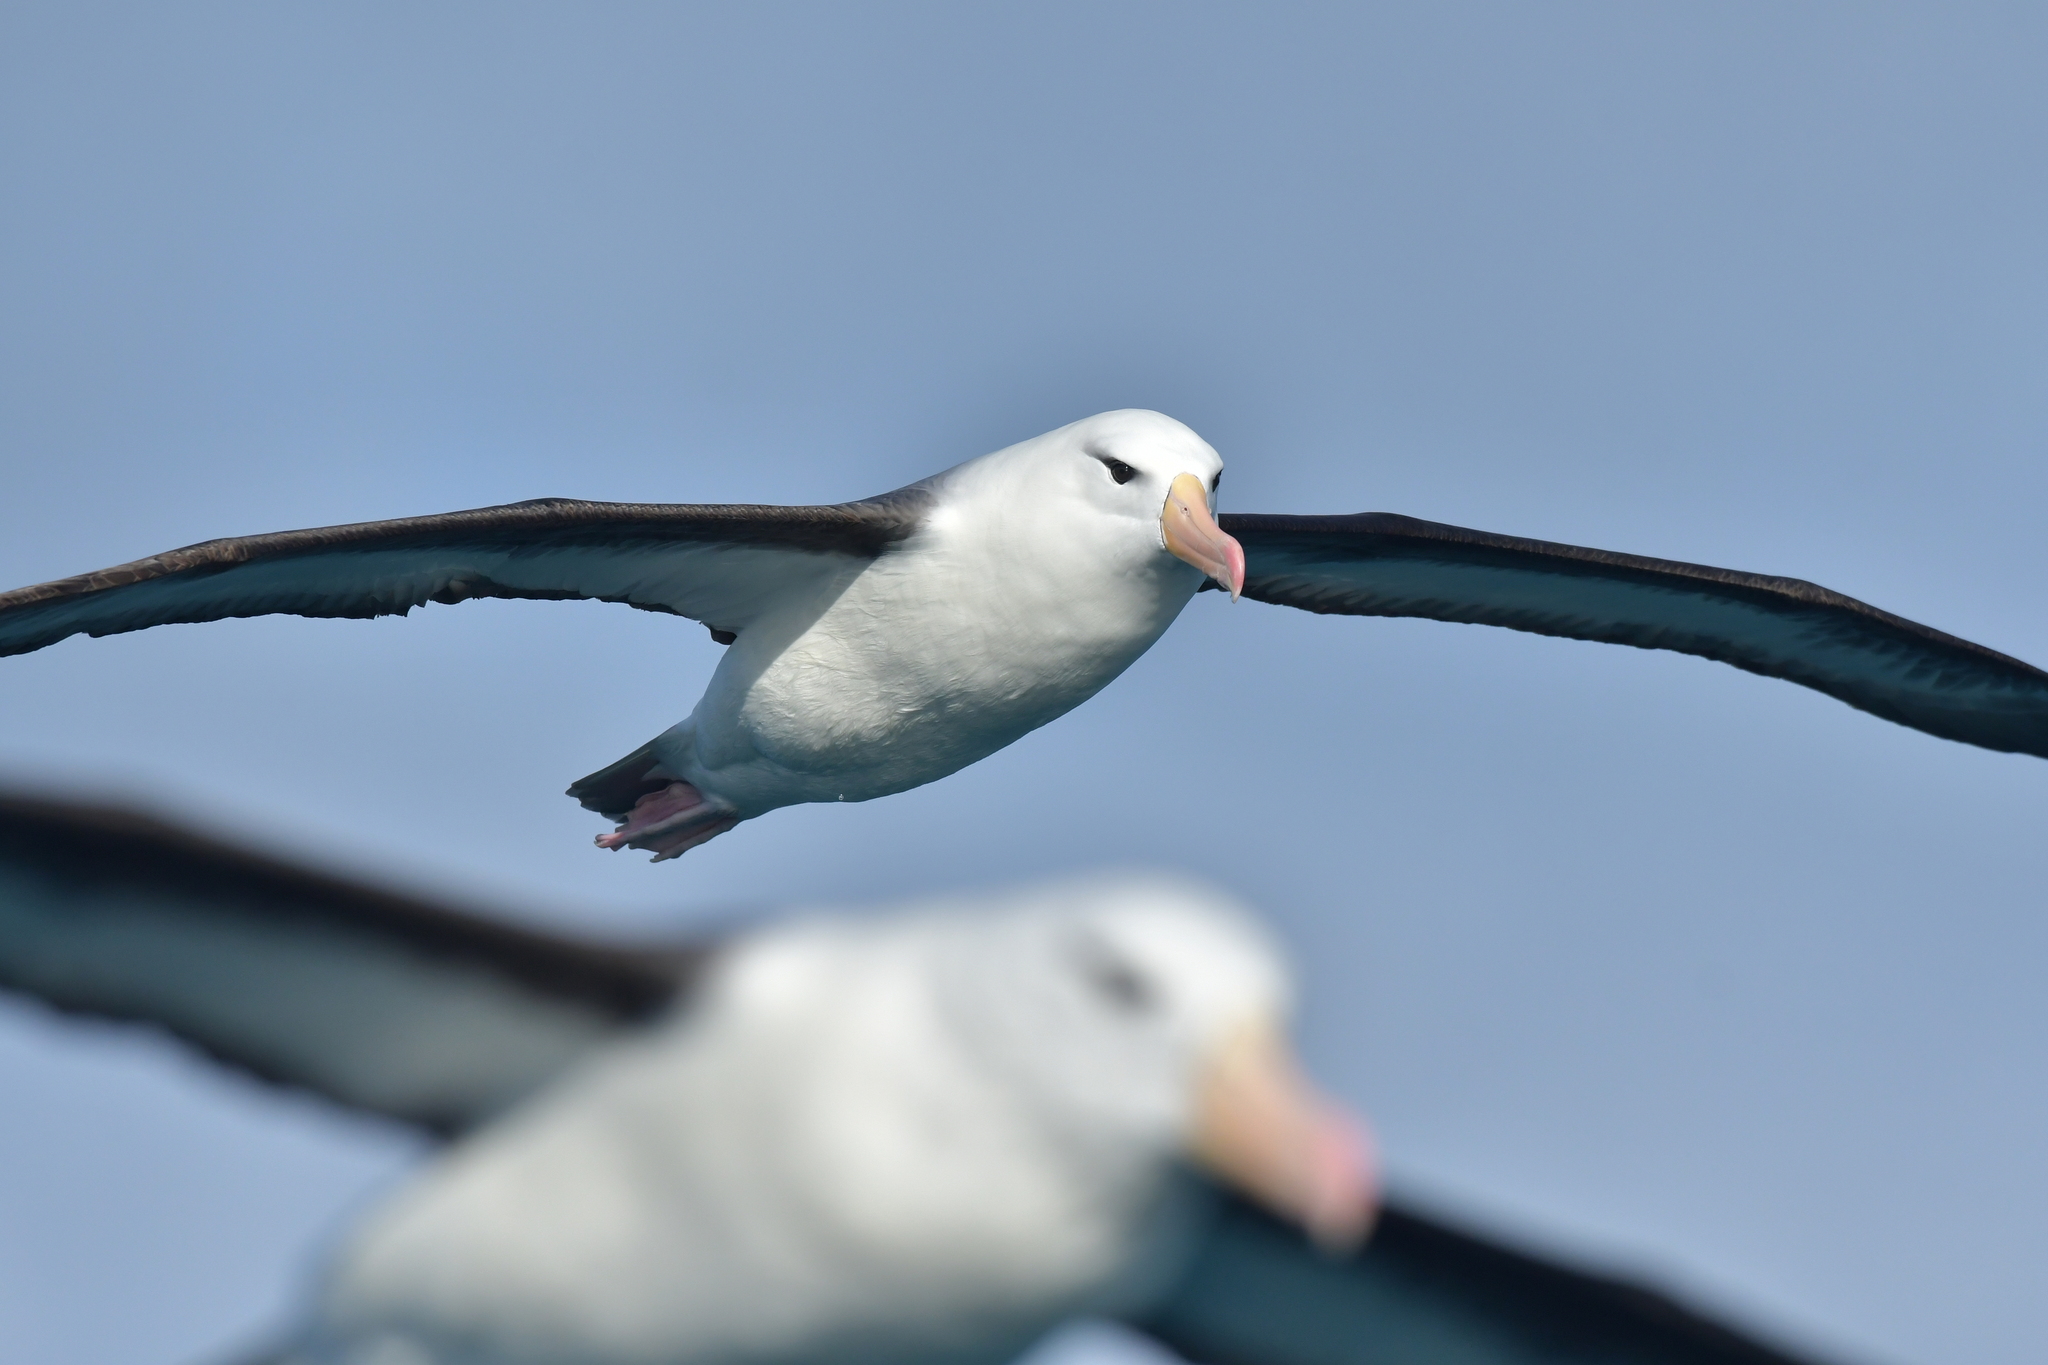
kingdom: Animalia
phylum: Chordata
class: Aves
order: Procellariiformes
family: Diomedeidae
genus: Thalassarche
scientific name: Thalassarche melanophris
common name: Black-browed albatross
